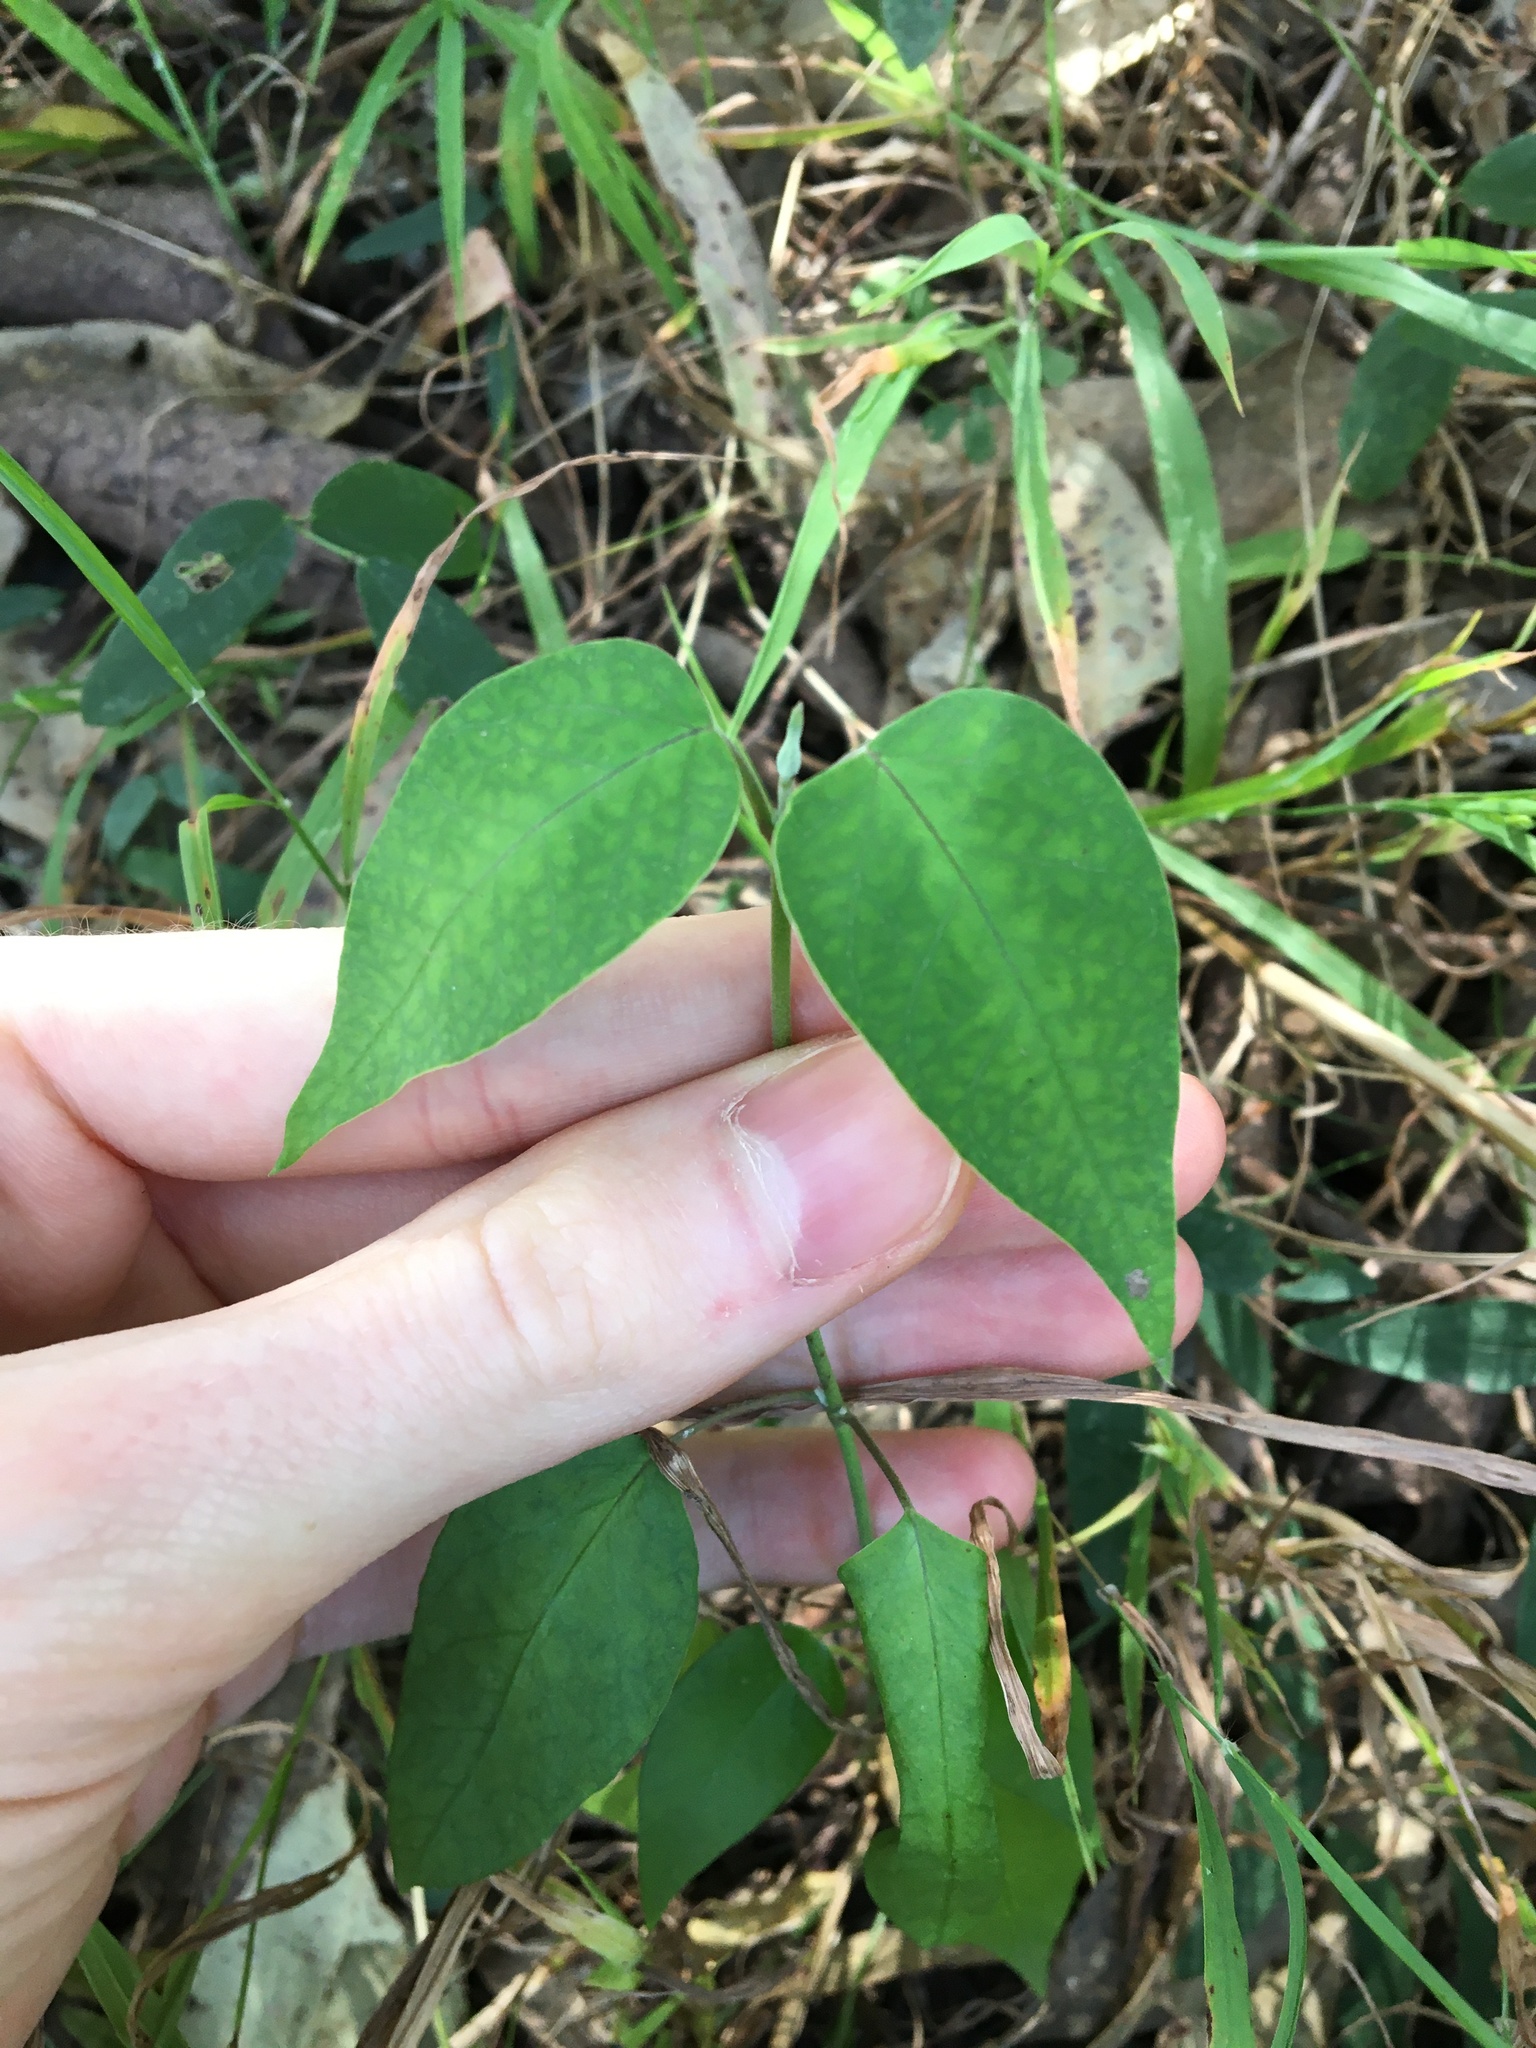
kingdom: Plantae
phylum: Tracheophyta
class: Magnoliopsida
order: Gentianales
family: Apocynaceae
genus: Araujia
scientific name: Araujia sericifera
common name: White bladderflower
